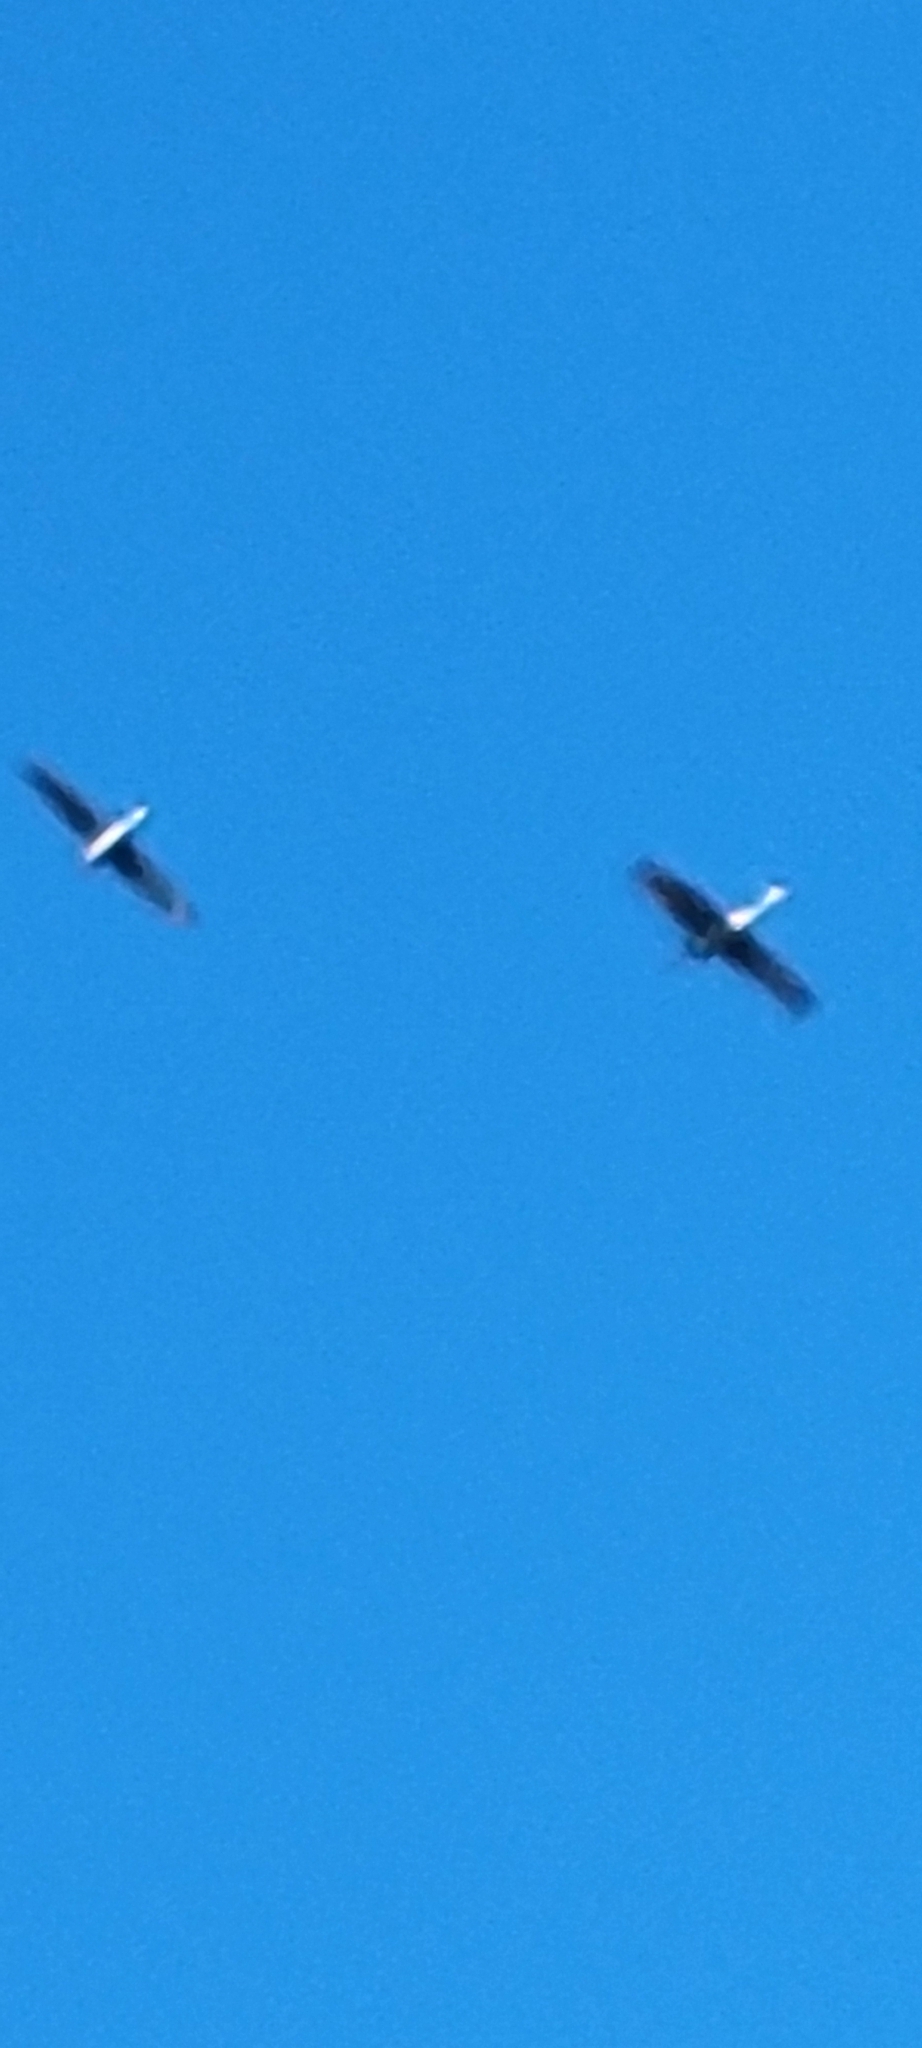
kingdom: Animalia
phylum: Chordata
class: Aves
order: Gruiformes
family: Gruidae
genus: Grus
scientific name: Grus canadensis
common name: Sandhill crane
